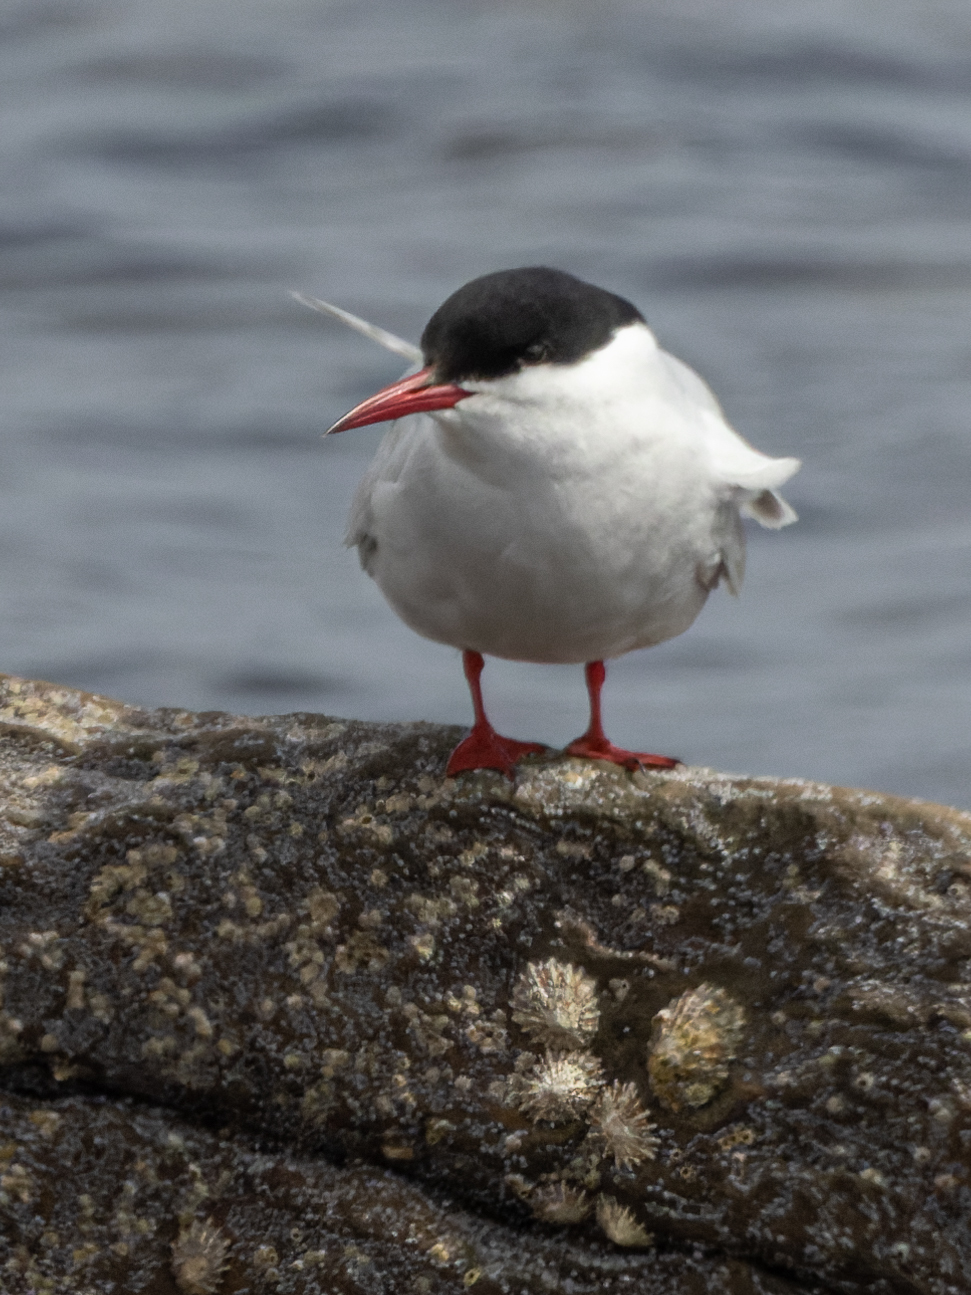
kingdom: Animalia
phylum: Chordata
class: Aves
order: Charadriiformes
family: Laridae
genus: Sterna
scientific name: Sterna paradisaea
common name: Arctic tern
